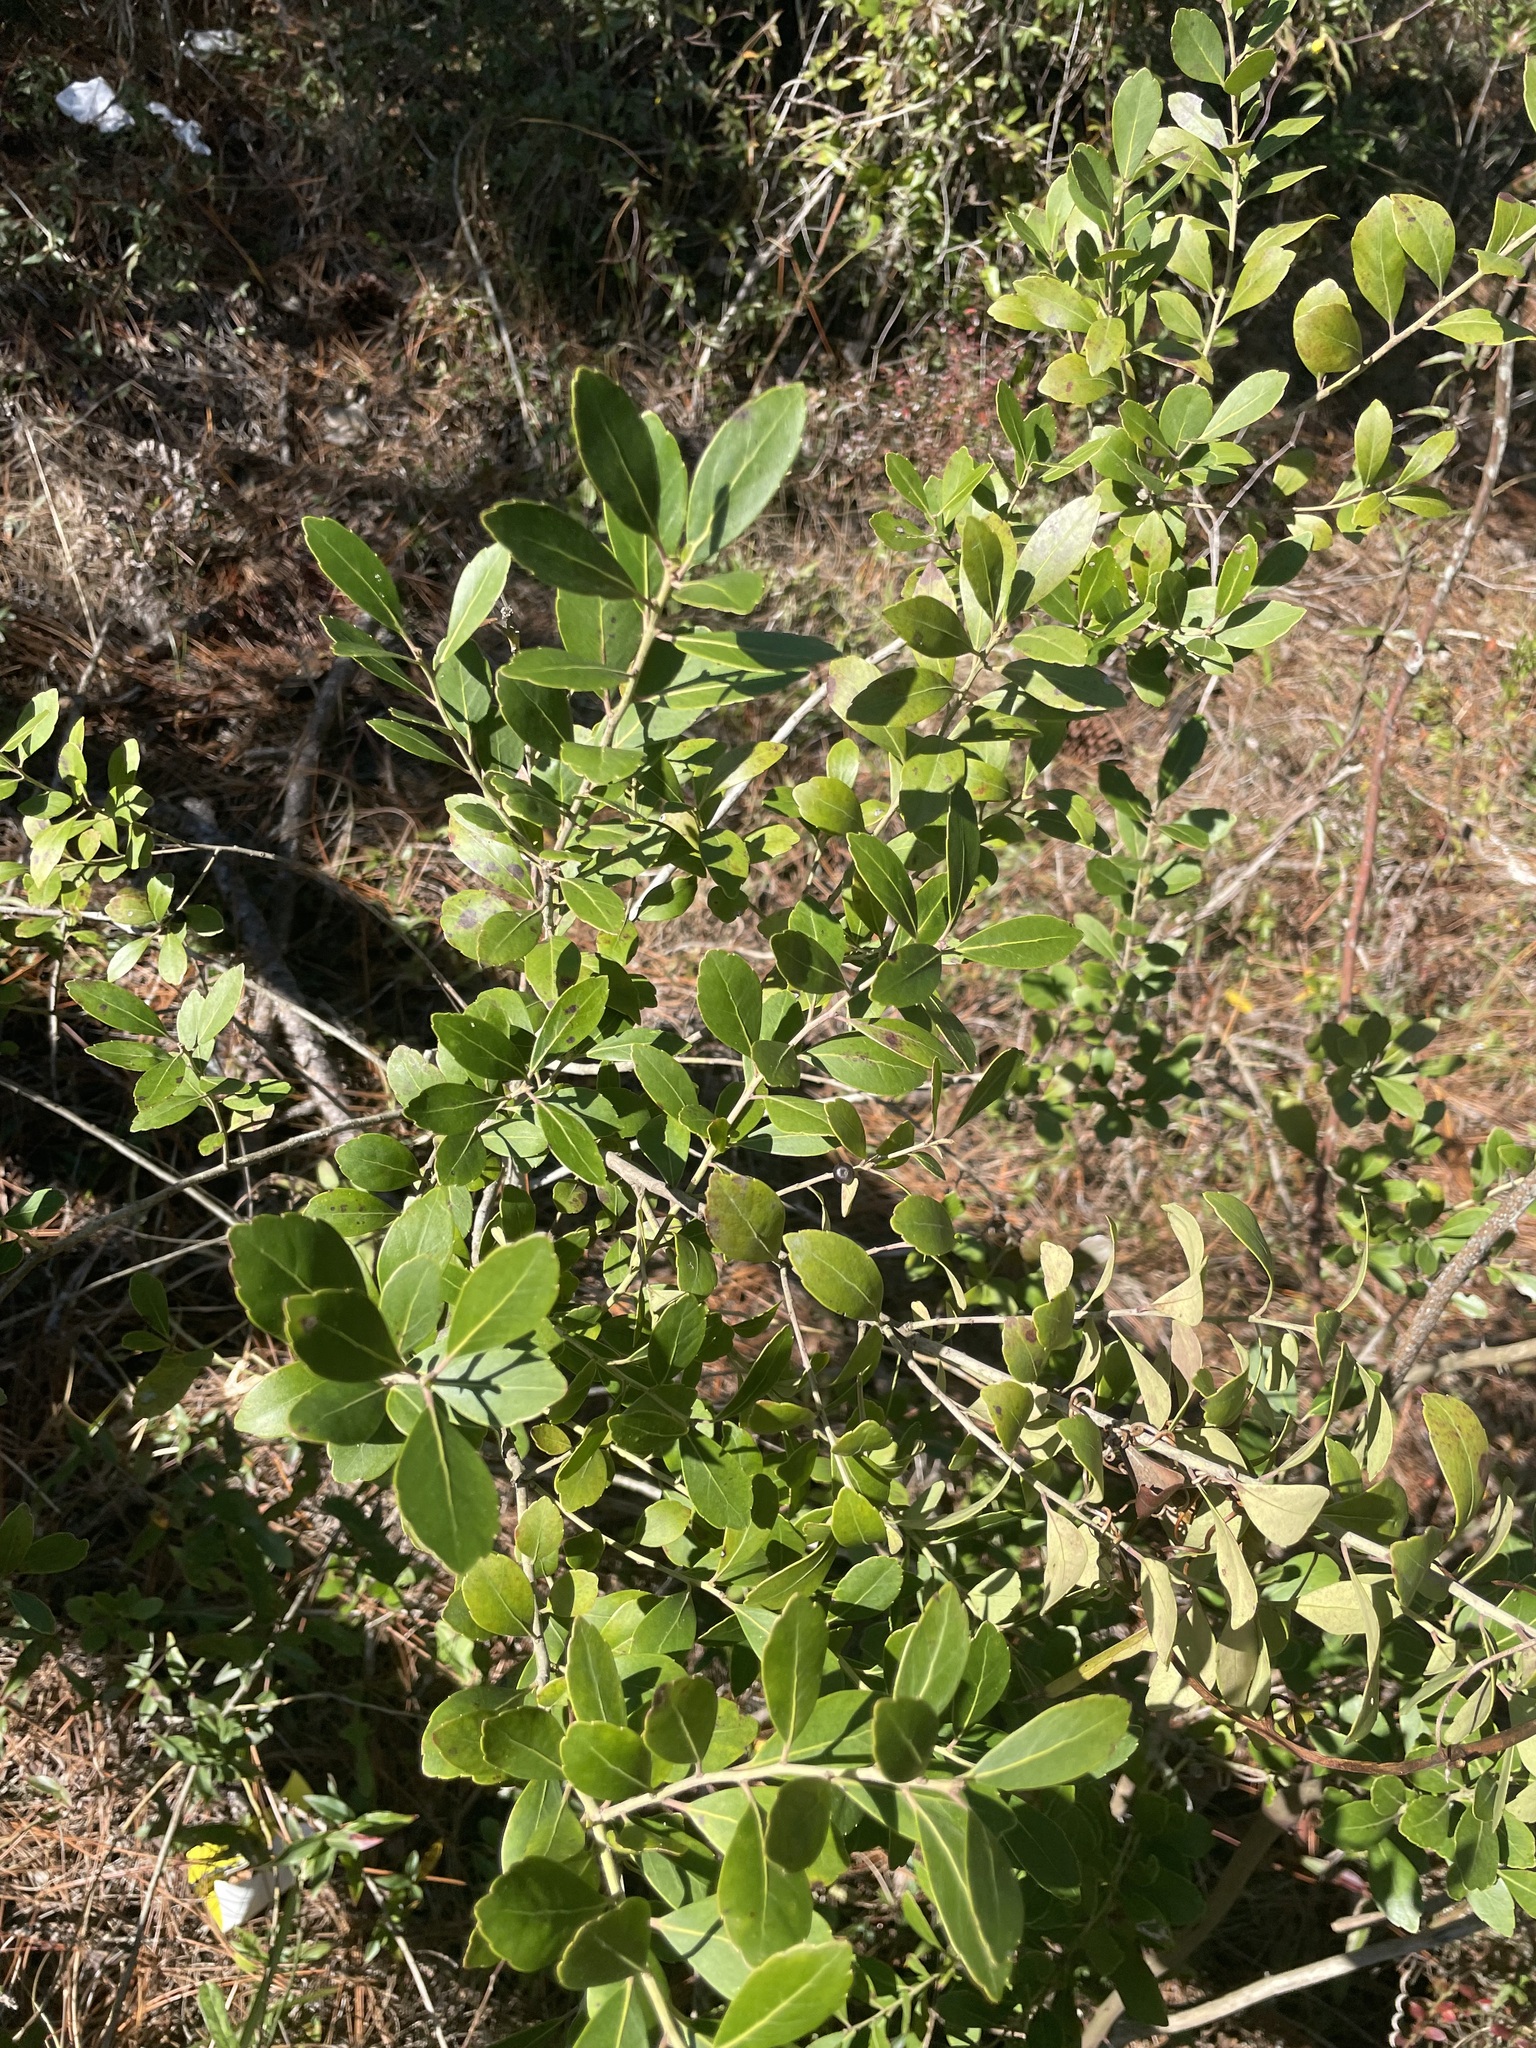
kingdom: Plantae
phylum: Tracheophyta
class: Magnoliopsida
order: Aquifoliales
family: Aquifoliaceae
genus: Ilex
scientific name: Ilex glabra
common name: Bitter gallberry
